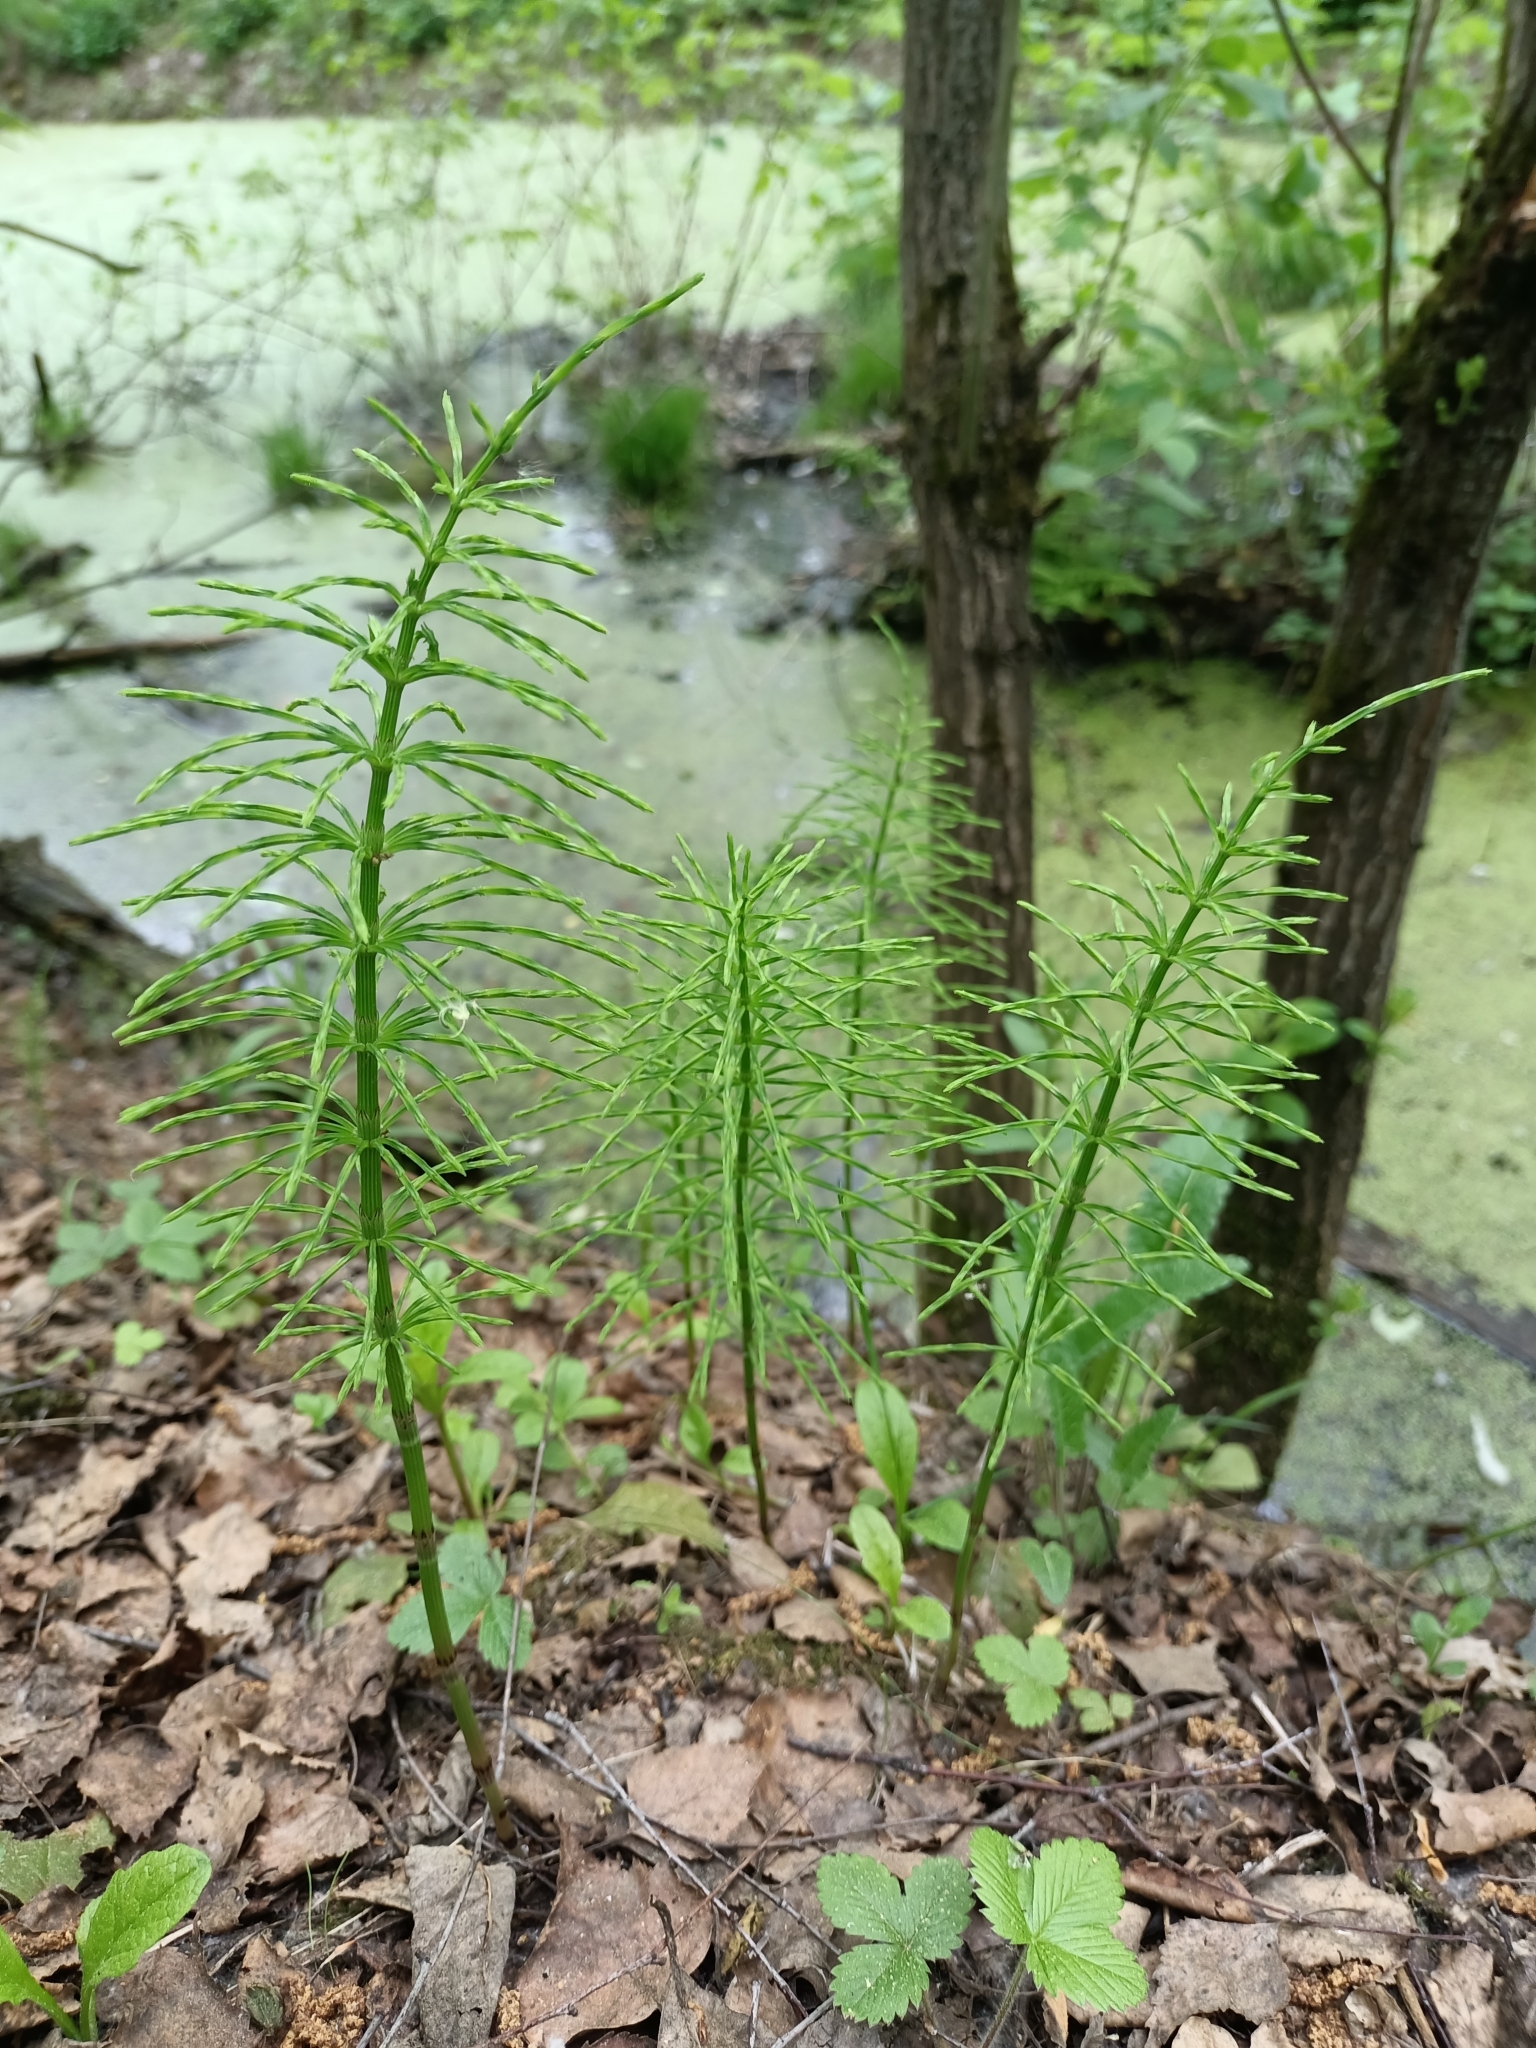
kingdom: Plantae
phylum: Tracheophyta
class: Polypodiopsida
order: Equisetales
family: Equisetaceae
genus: Equisetum
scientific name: Equisetum arvense
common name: Field horsetail
